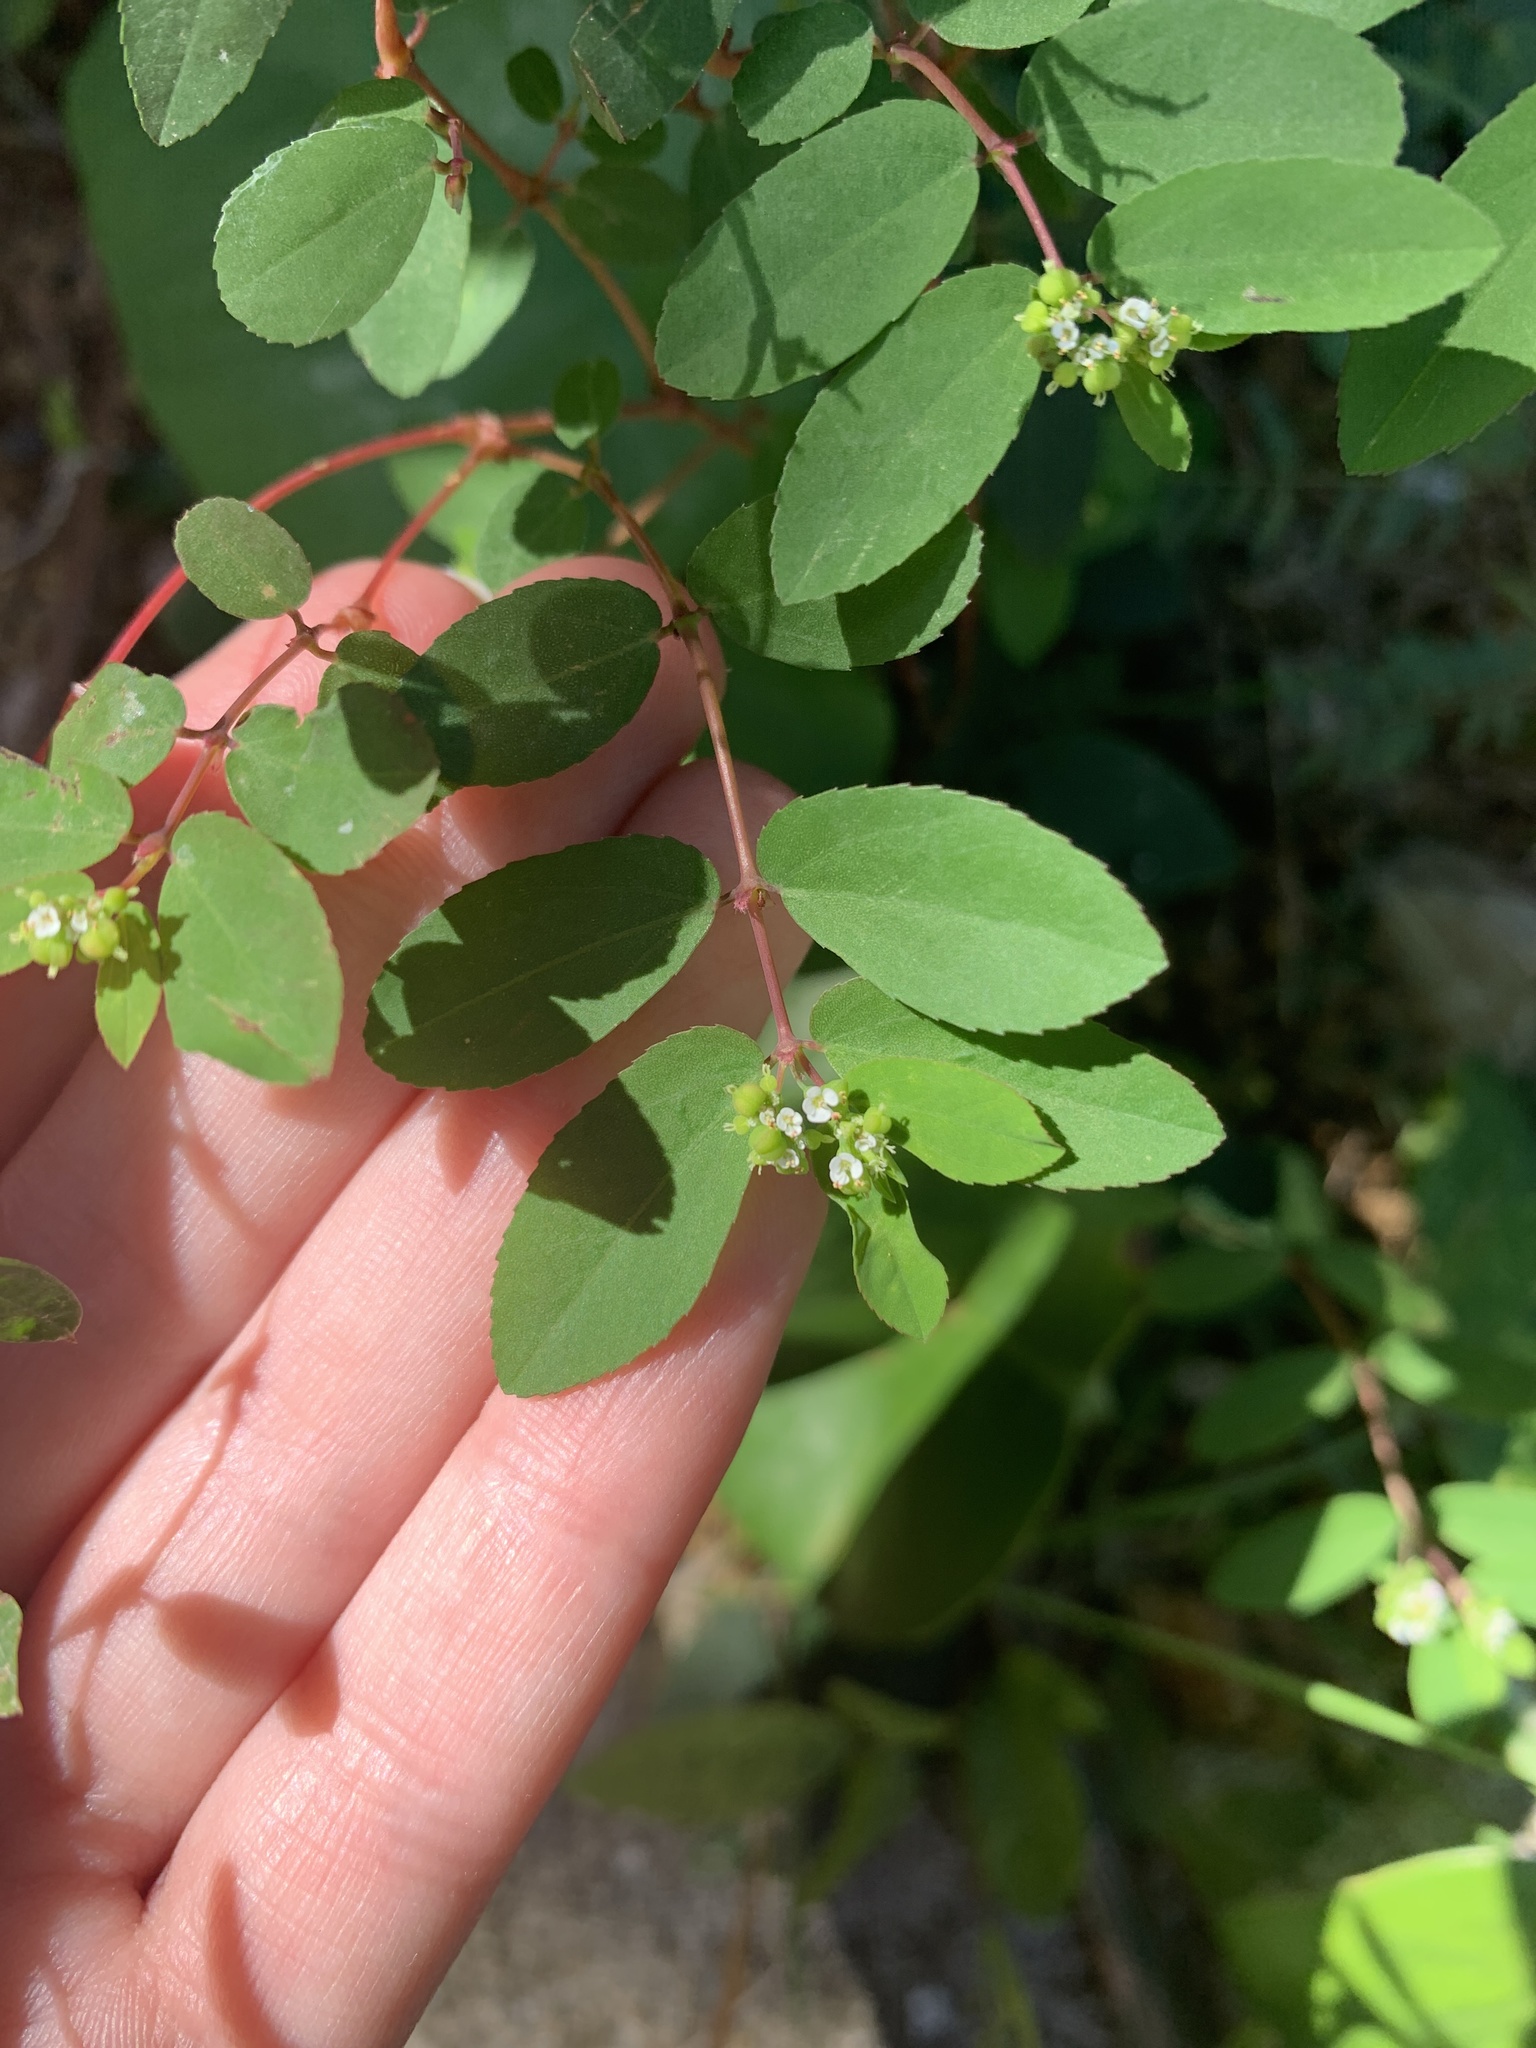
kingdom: Plantae
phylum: Tracheophyta
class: Magnoliopsida
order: Malpighiales
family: Euphorbiaceae
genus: Euphorbia
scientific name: Euphorbia hypericifolia
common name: Graceful sandmat
